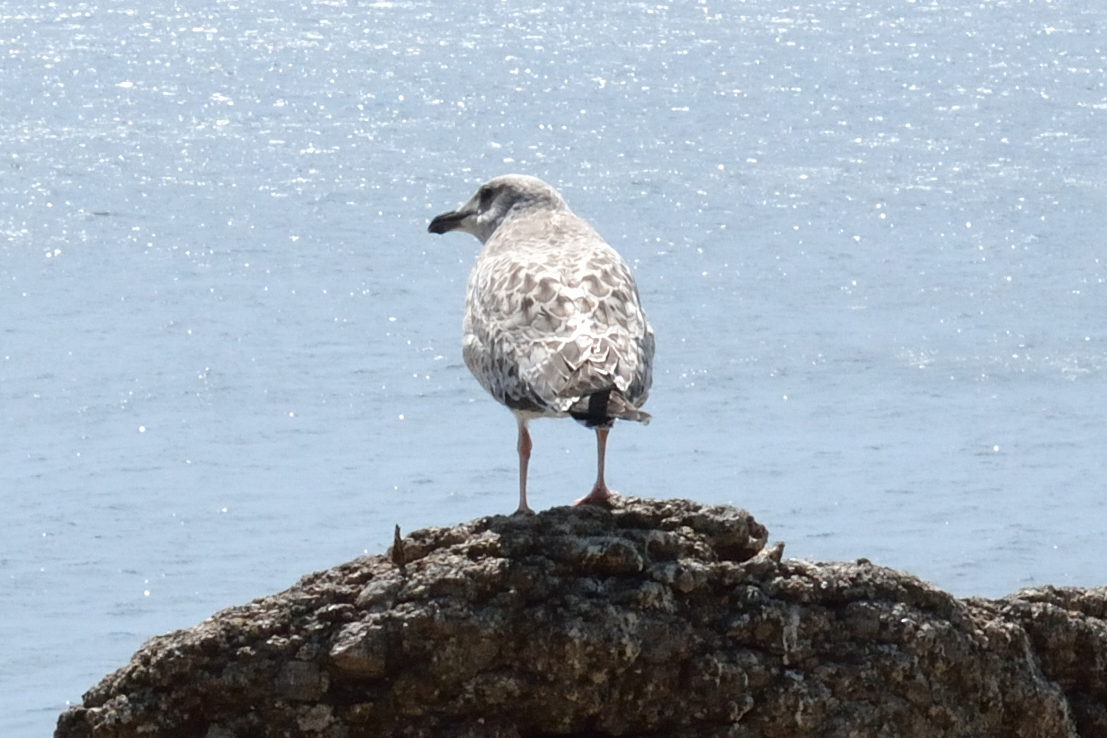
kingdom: Animalia
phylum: Chordata
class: Aves
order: Charadriiformes
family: Laridae
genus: Larus
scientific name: Larus vegae
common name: Vega gull
